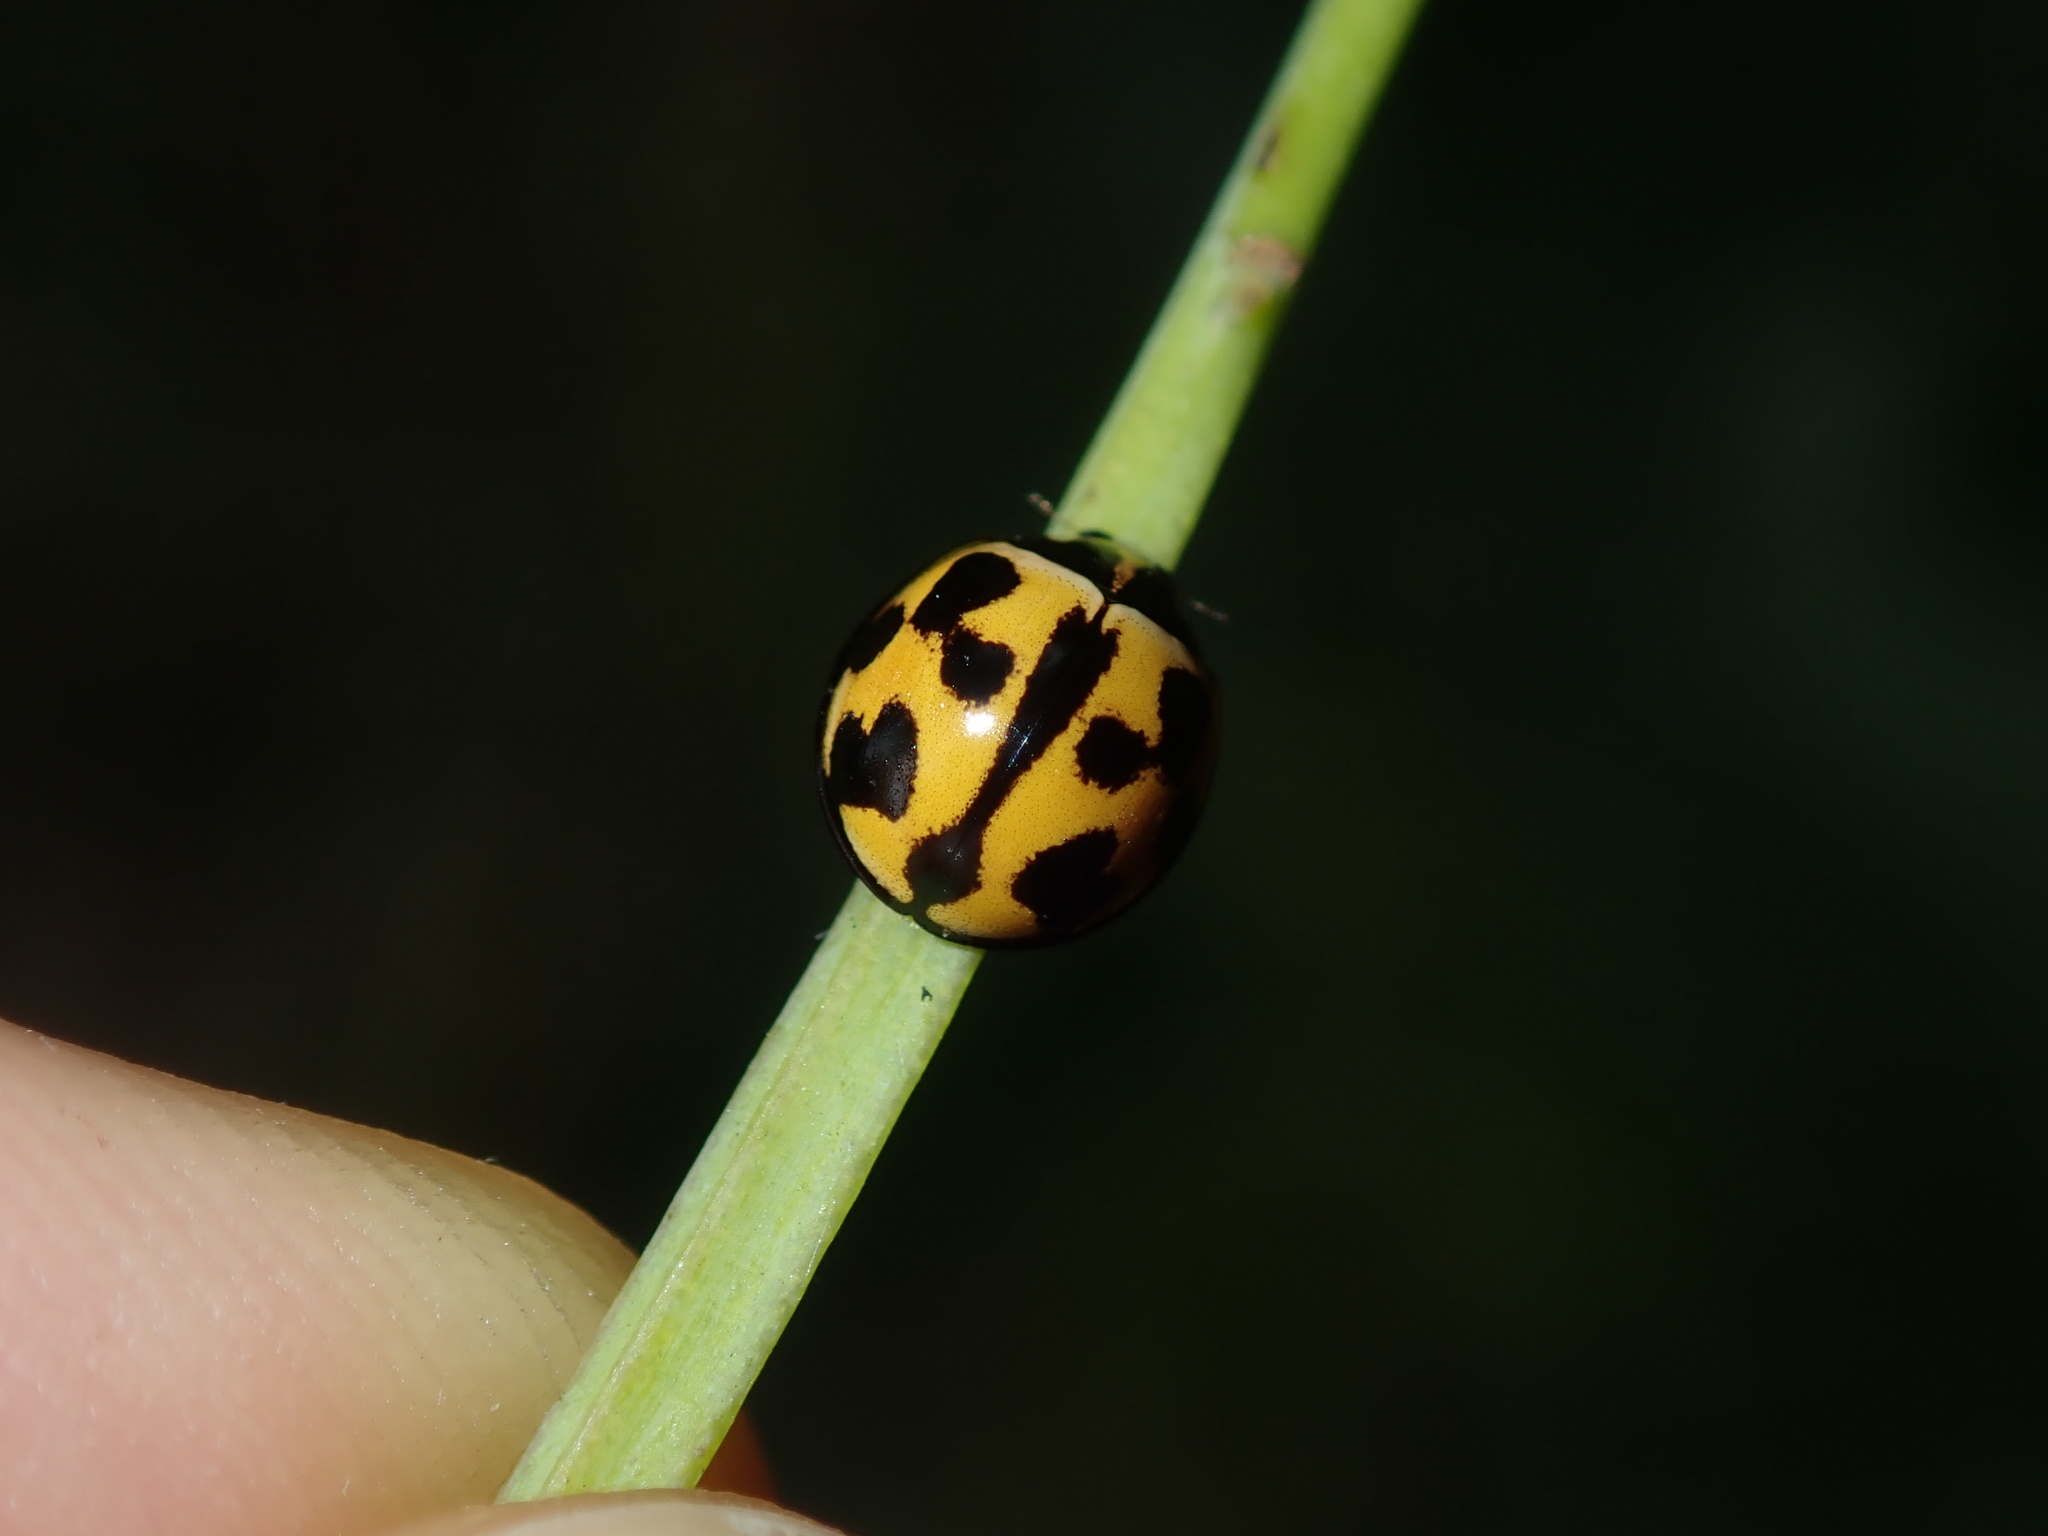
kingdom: Animalia
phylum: Arthropoda
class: Insecta
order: Coleoptera
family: Coccinellidae
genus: Coelophora
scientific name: Coelophora inaequalis
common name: Common australian lady beetle
